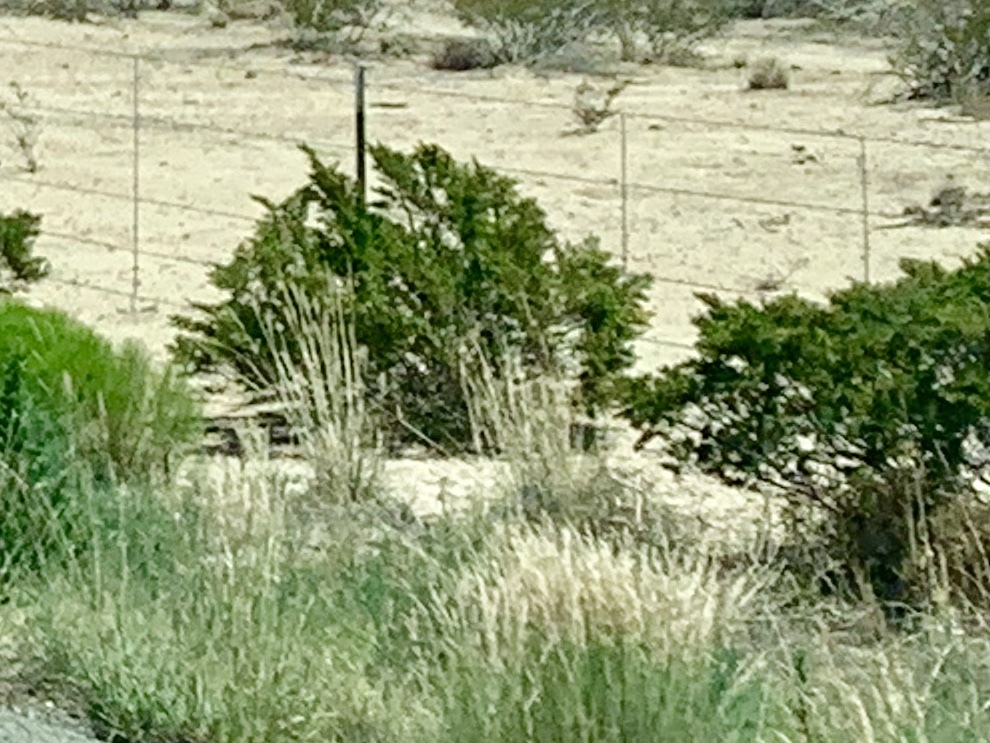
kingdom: Plantae
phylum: Tracheophyta
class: Magnoliopsida
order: Zygophyllales
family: Zygophyllaceae
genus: Larrea
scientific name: Larrea tridentata
